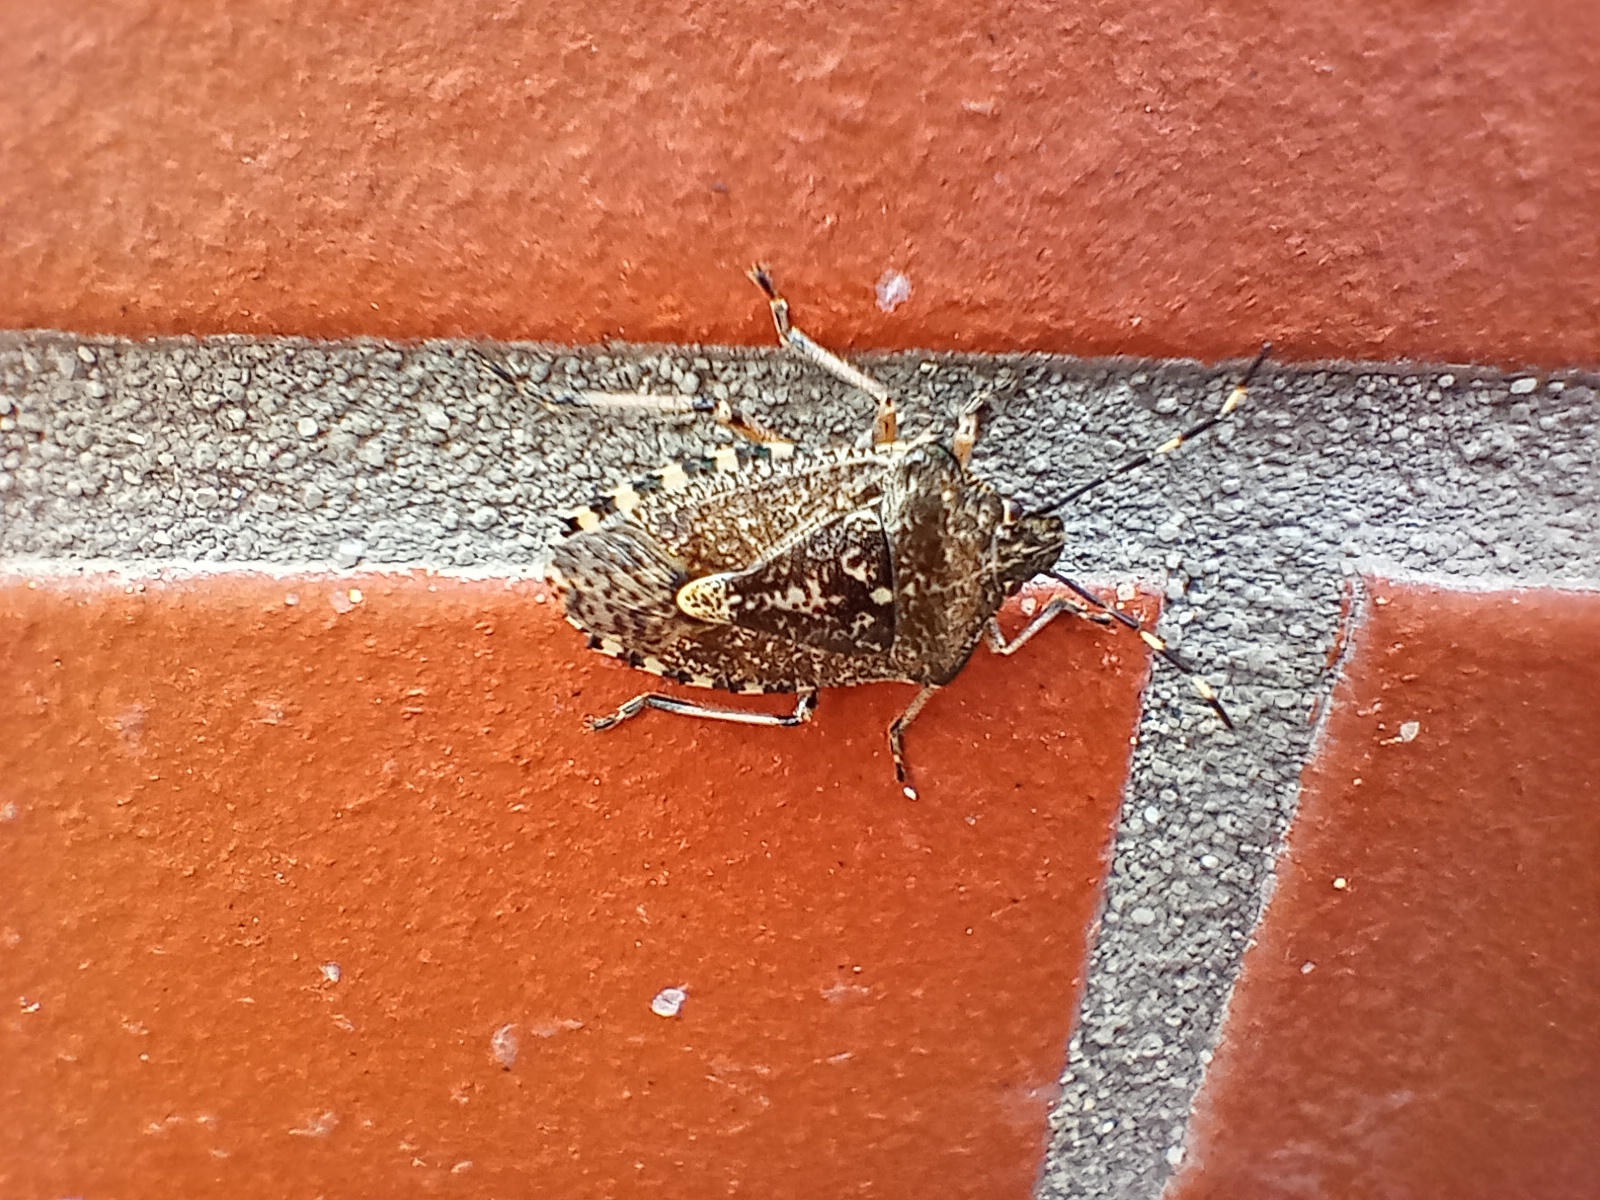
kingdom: Animalia
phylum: Arthropoda
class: Insecta
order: Hemiptera
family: Pentatomidae
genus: Rhaphigaster
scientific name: Rhaphigaster nebulosa
